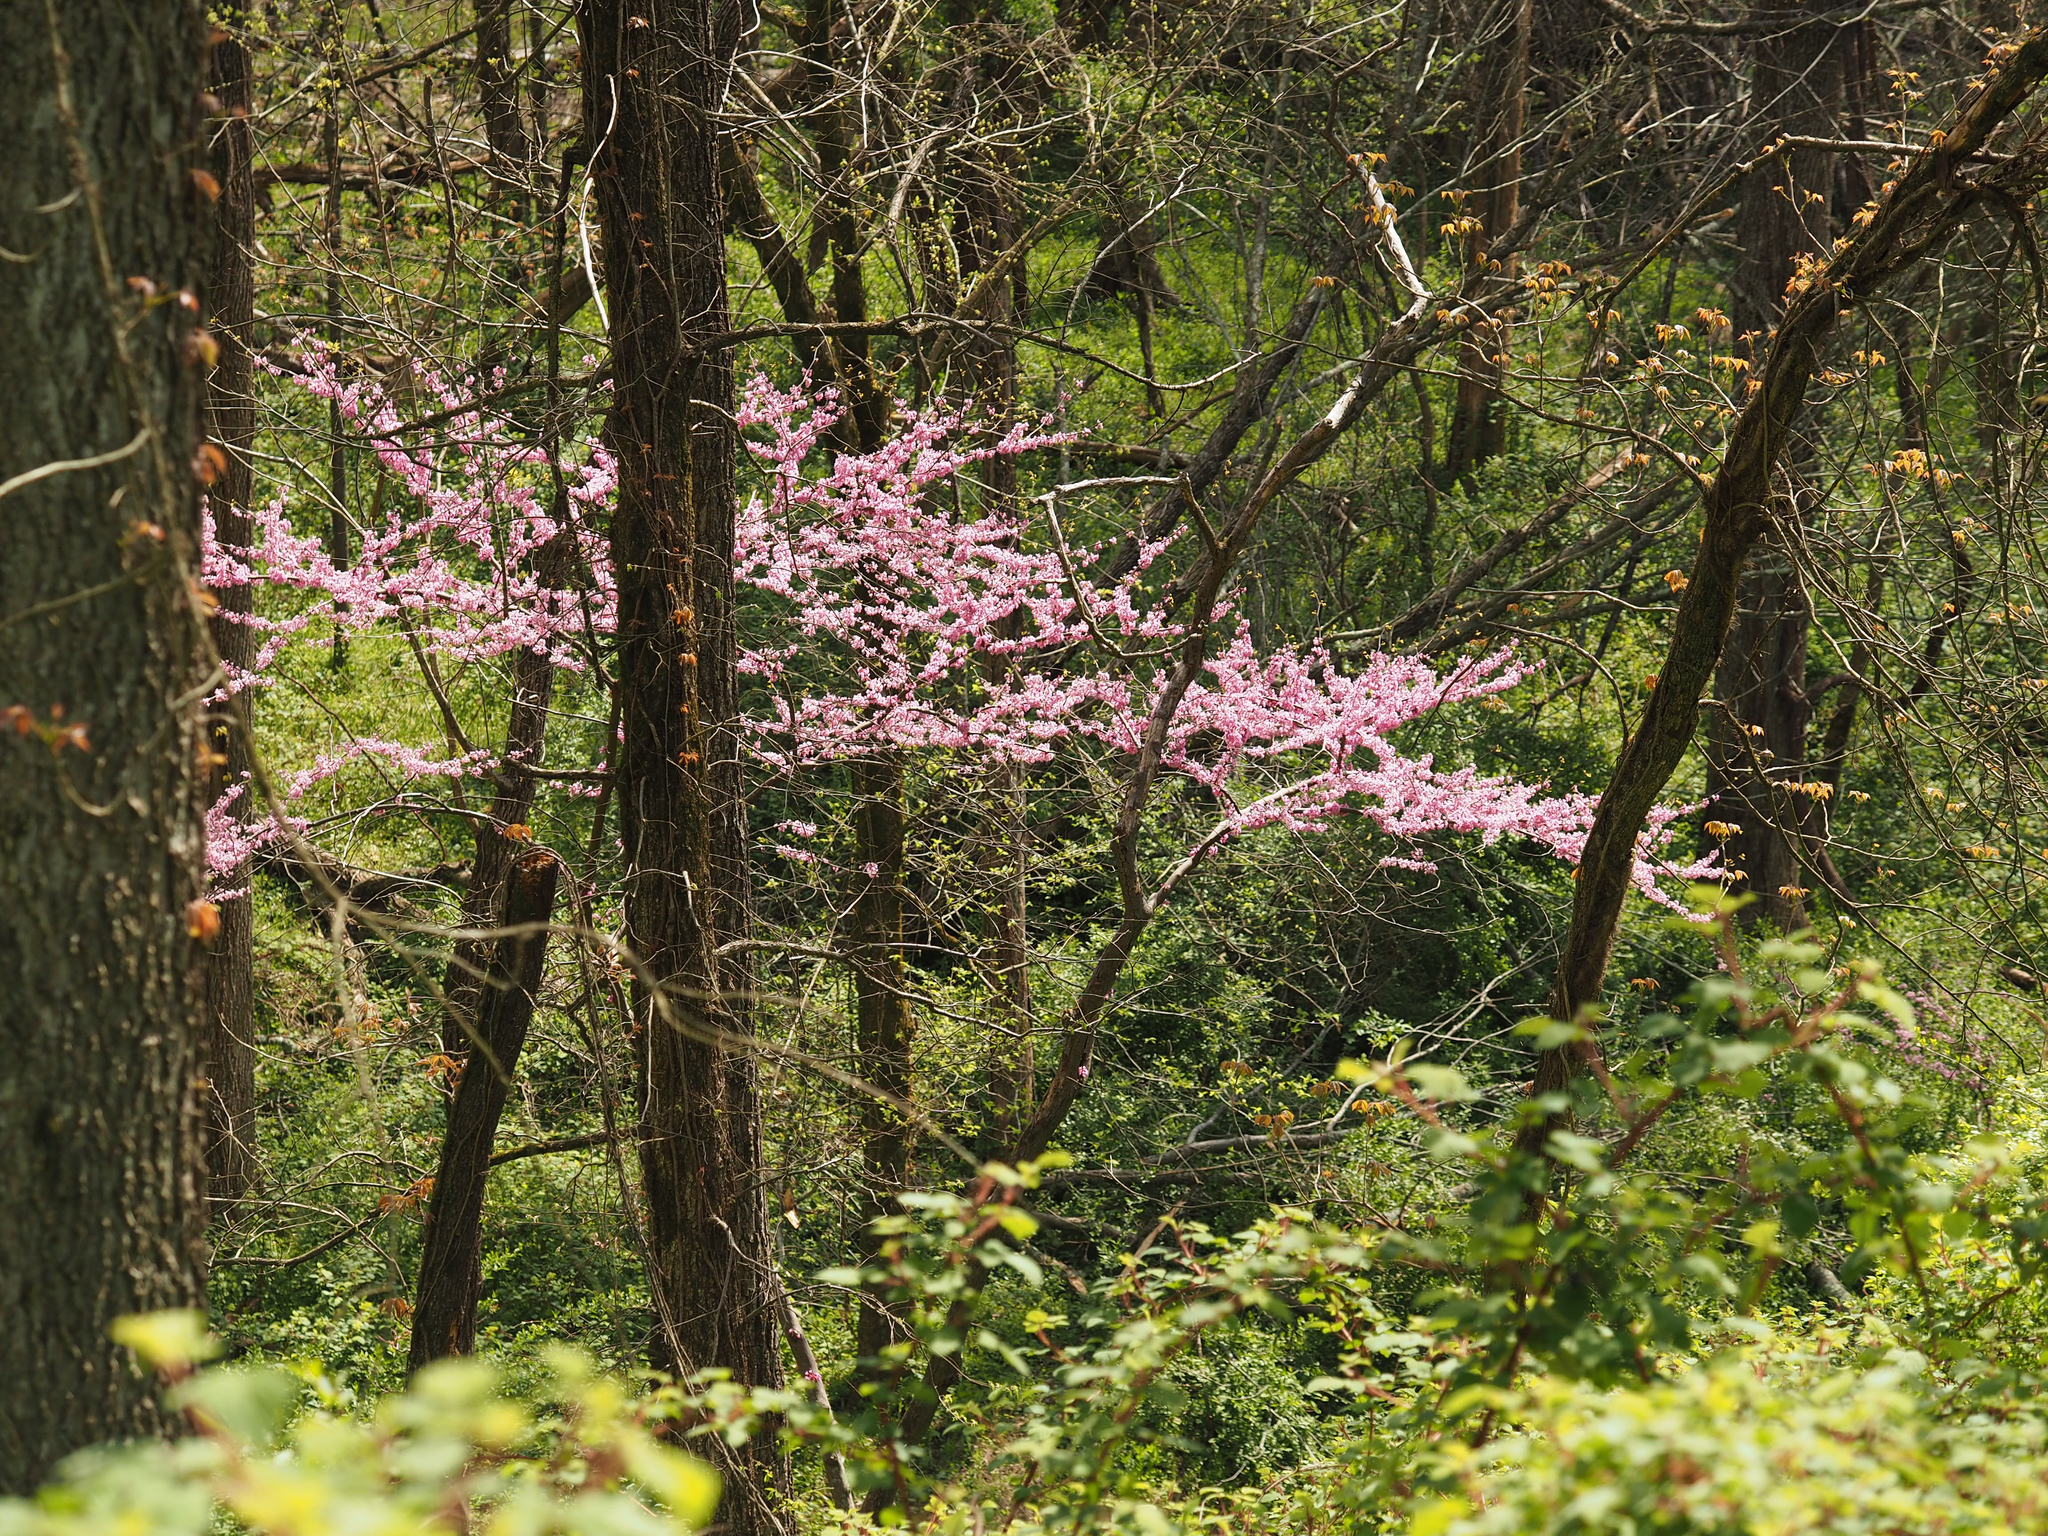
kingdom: Plantae
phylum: Tracheophyta
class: Magnoliopsida
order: Fabales
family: Fabaceae
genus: Cercis
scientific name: Cercis canadensis
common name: Eastern redbud
